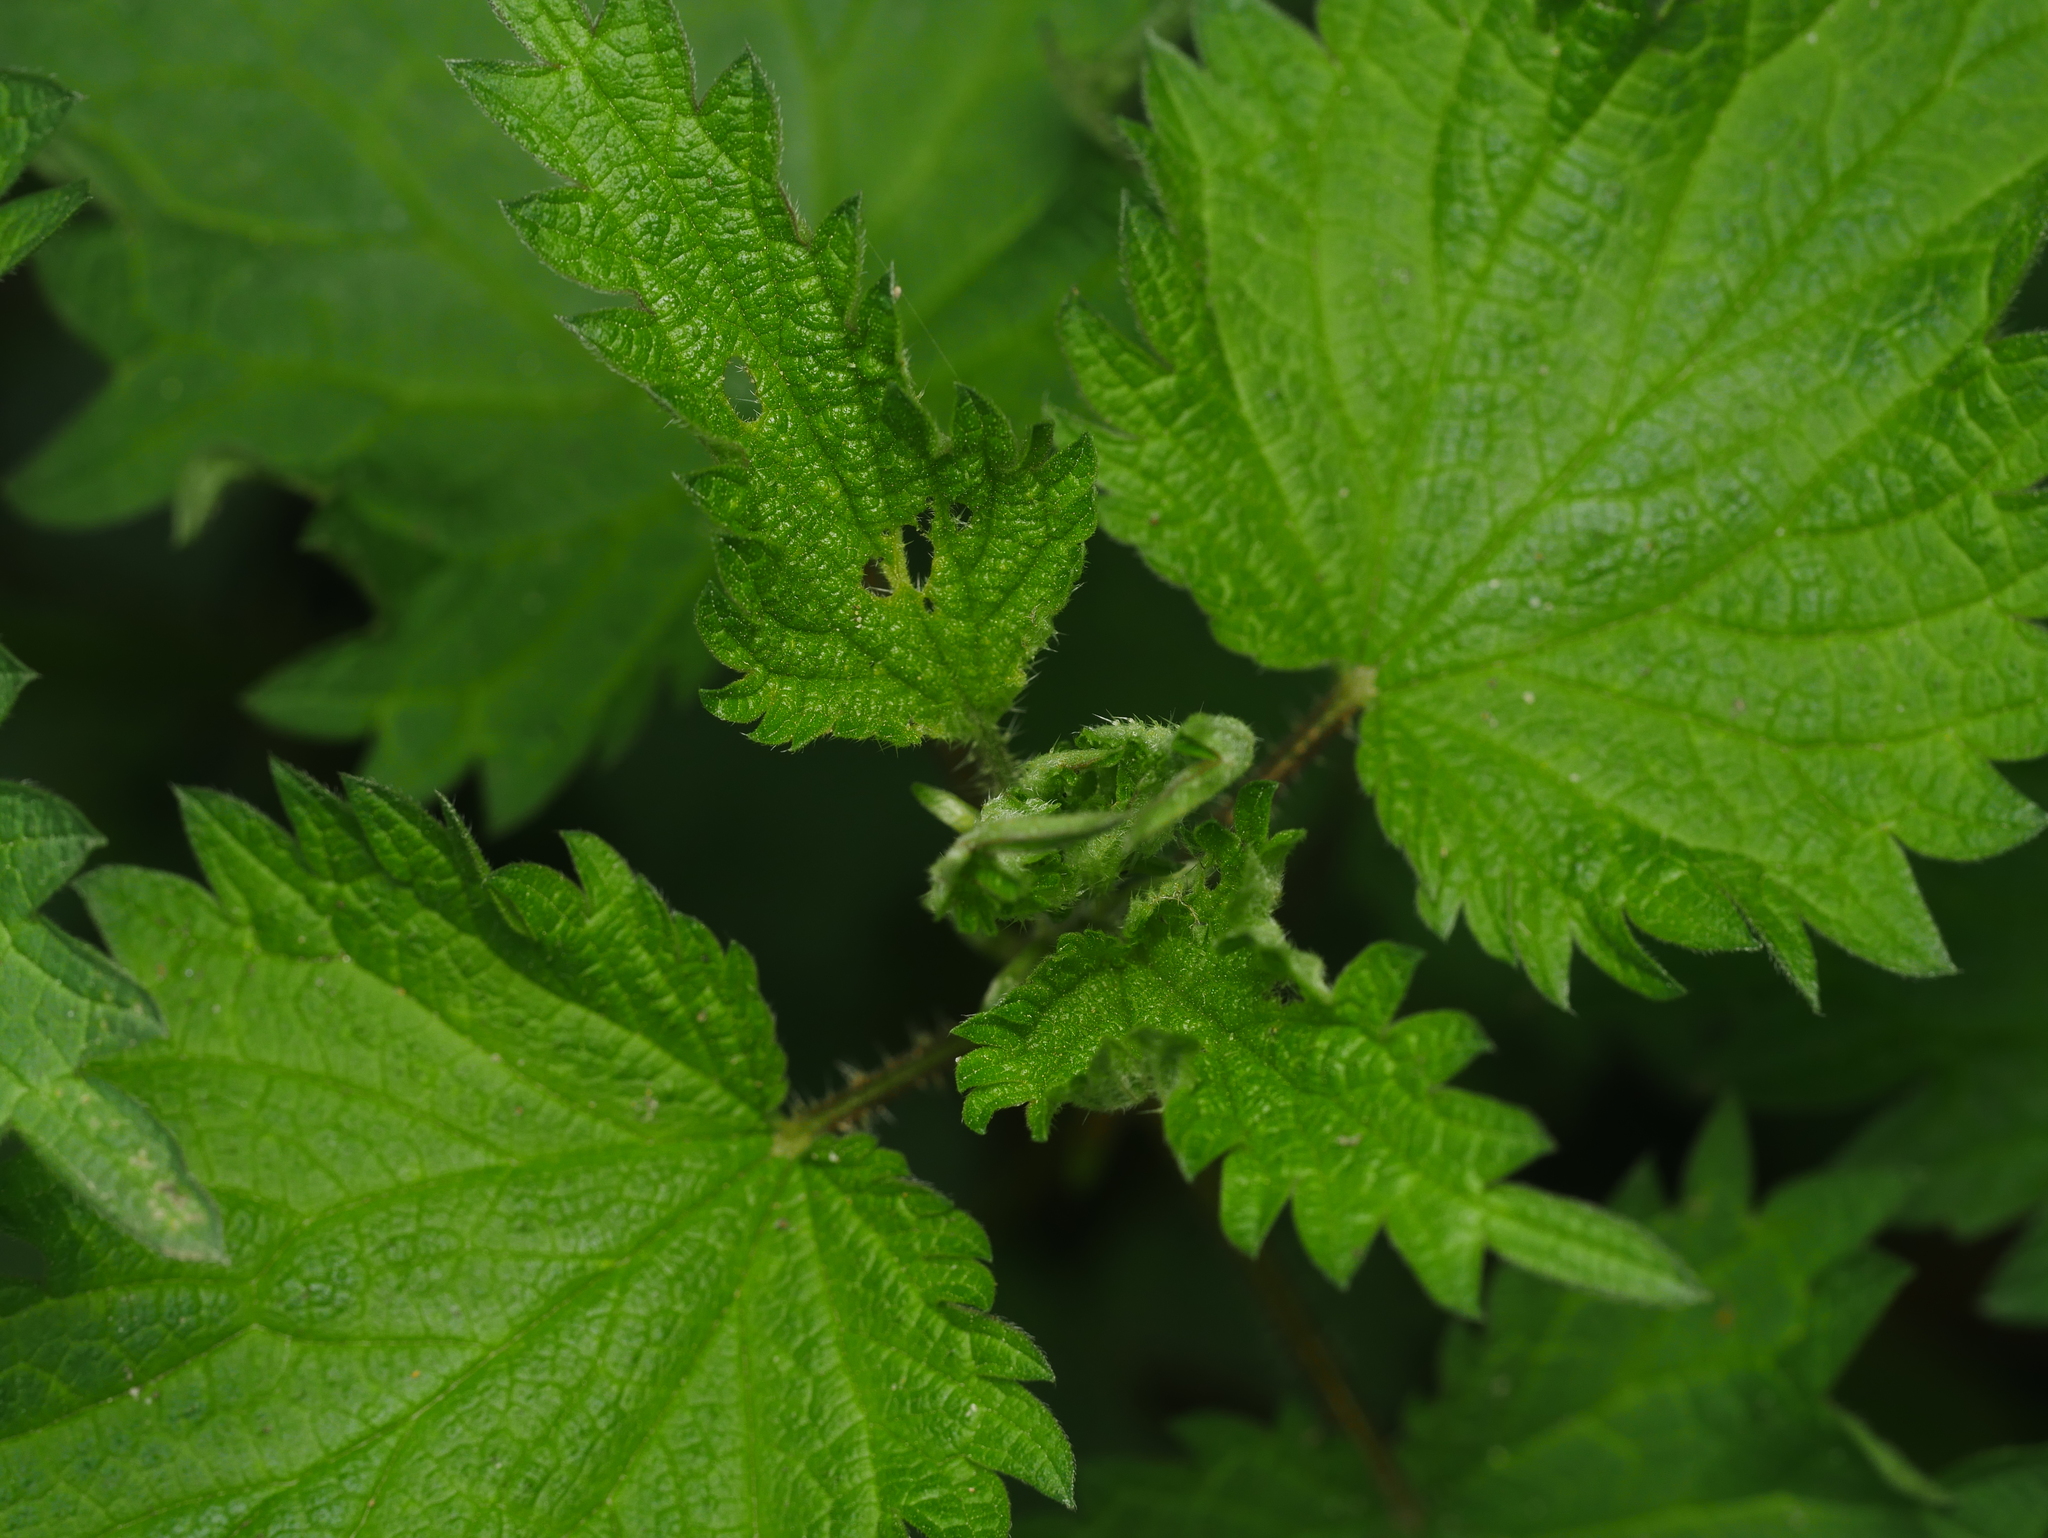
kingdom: Plantae
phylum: Tracheophyta
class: Magnoliopsida
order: Rosales
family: Urticaceae
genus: Urtica
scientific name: Urtica dioica
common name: Common nettle
